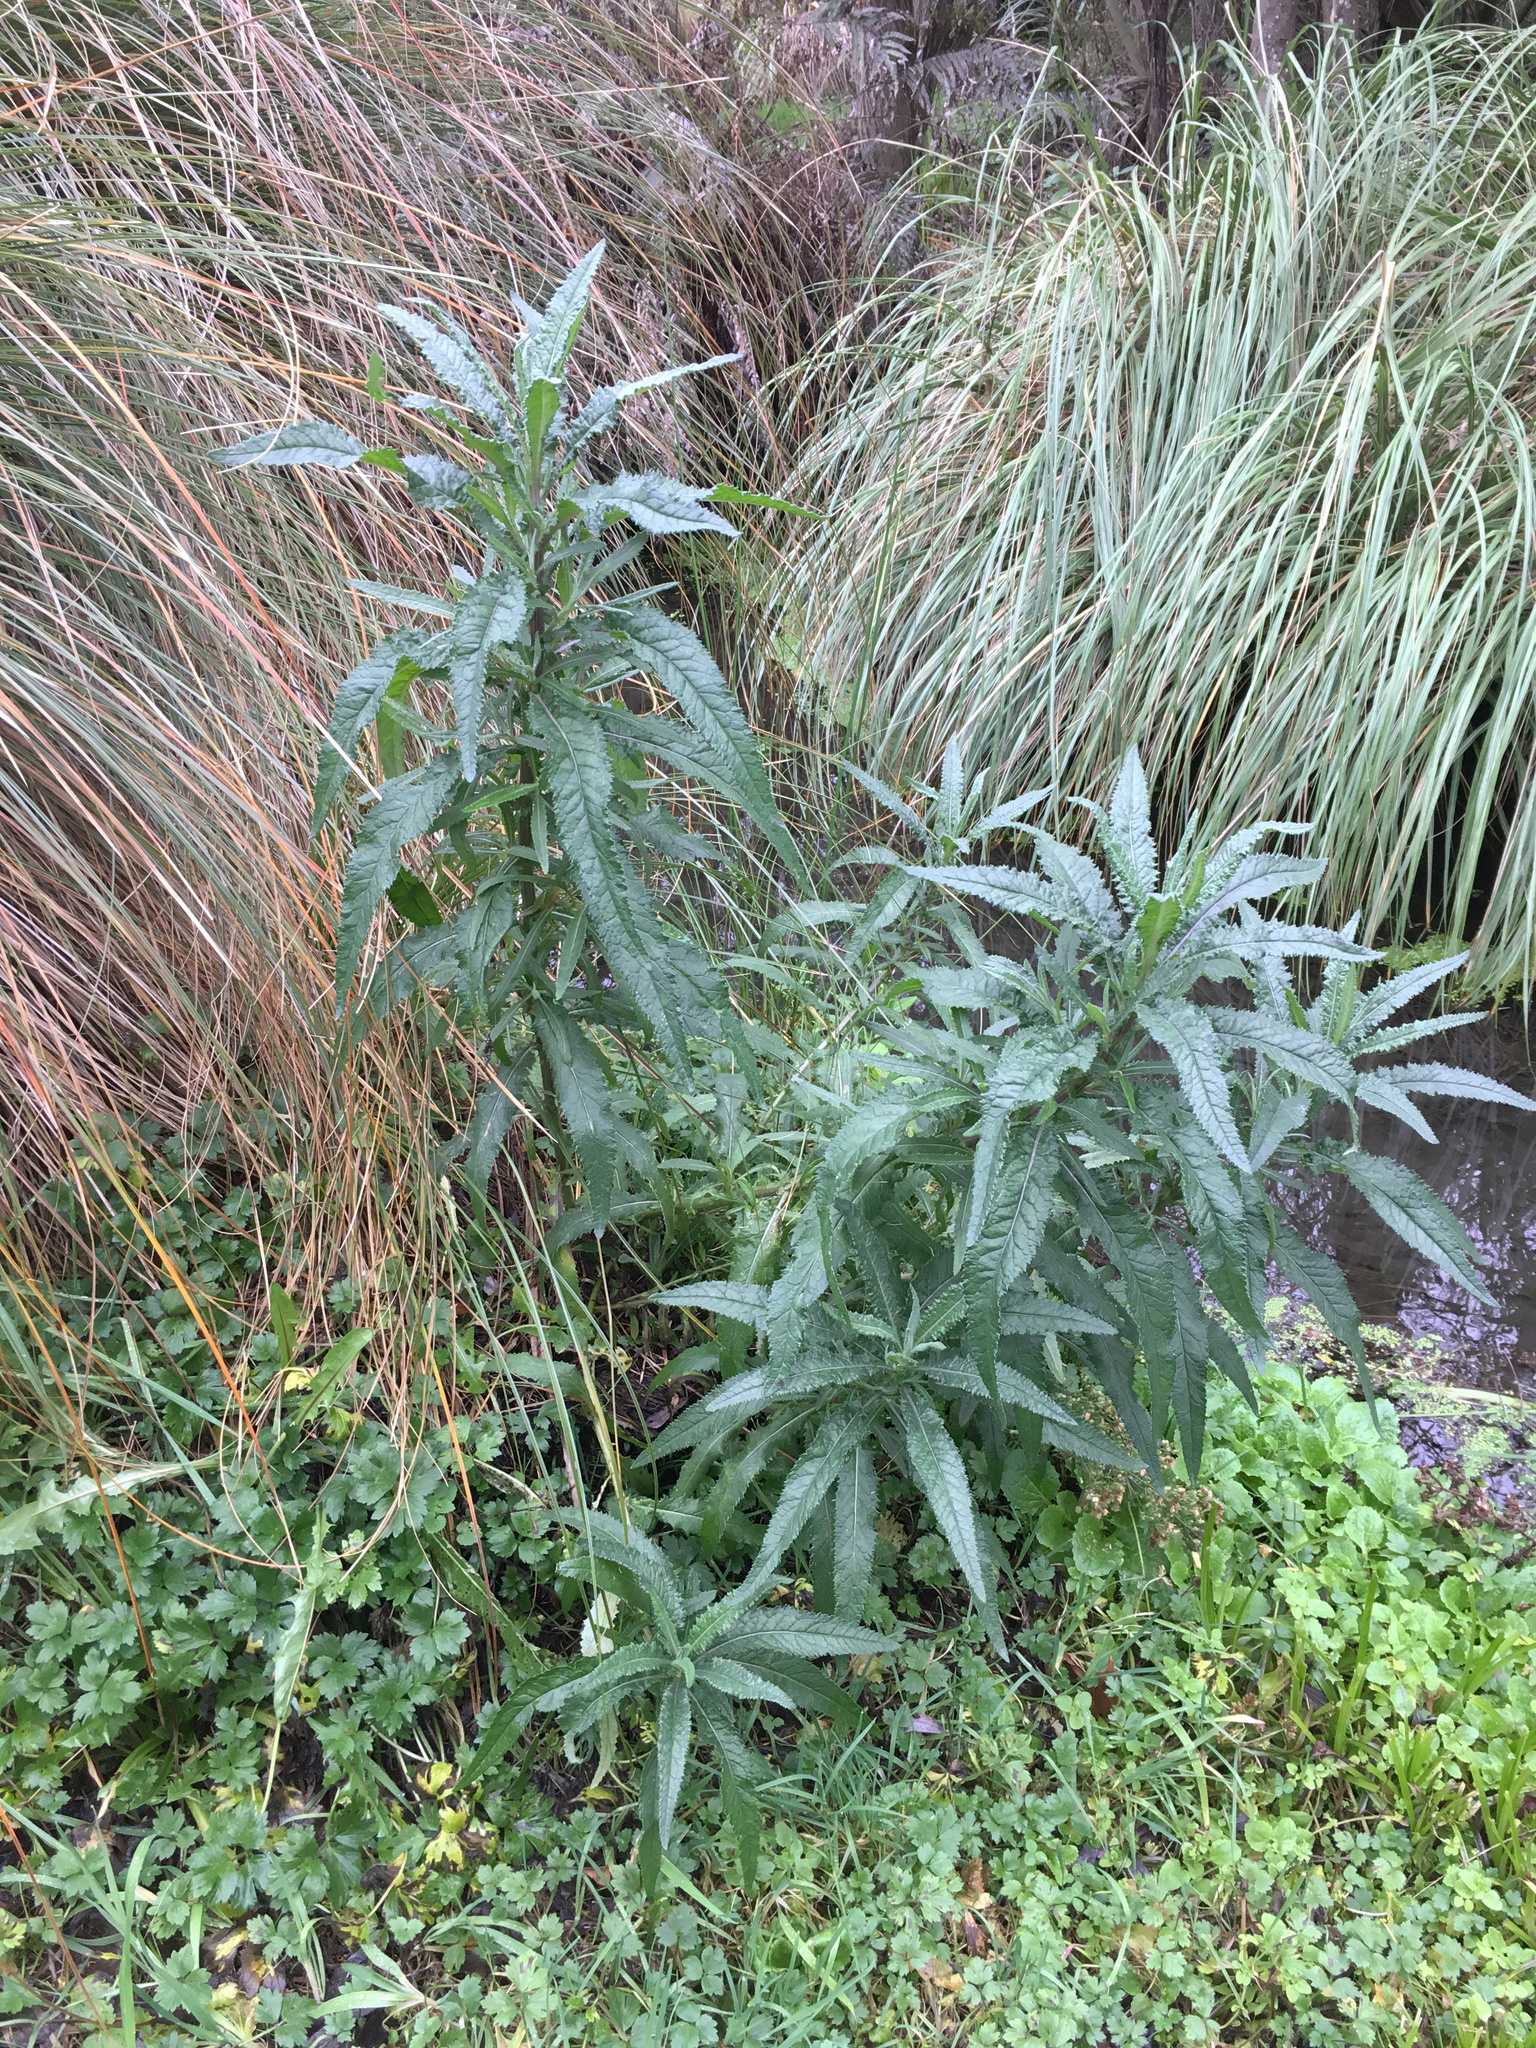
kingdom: Plantae
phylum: Tracheophyta
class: Magnoliopsida
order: Asterales
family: Asteraceae
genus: Senecio
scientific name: Senecio minimus
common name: Toothed fireweed
